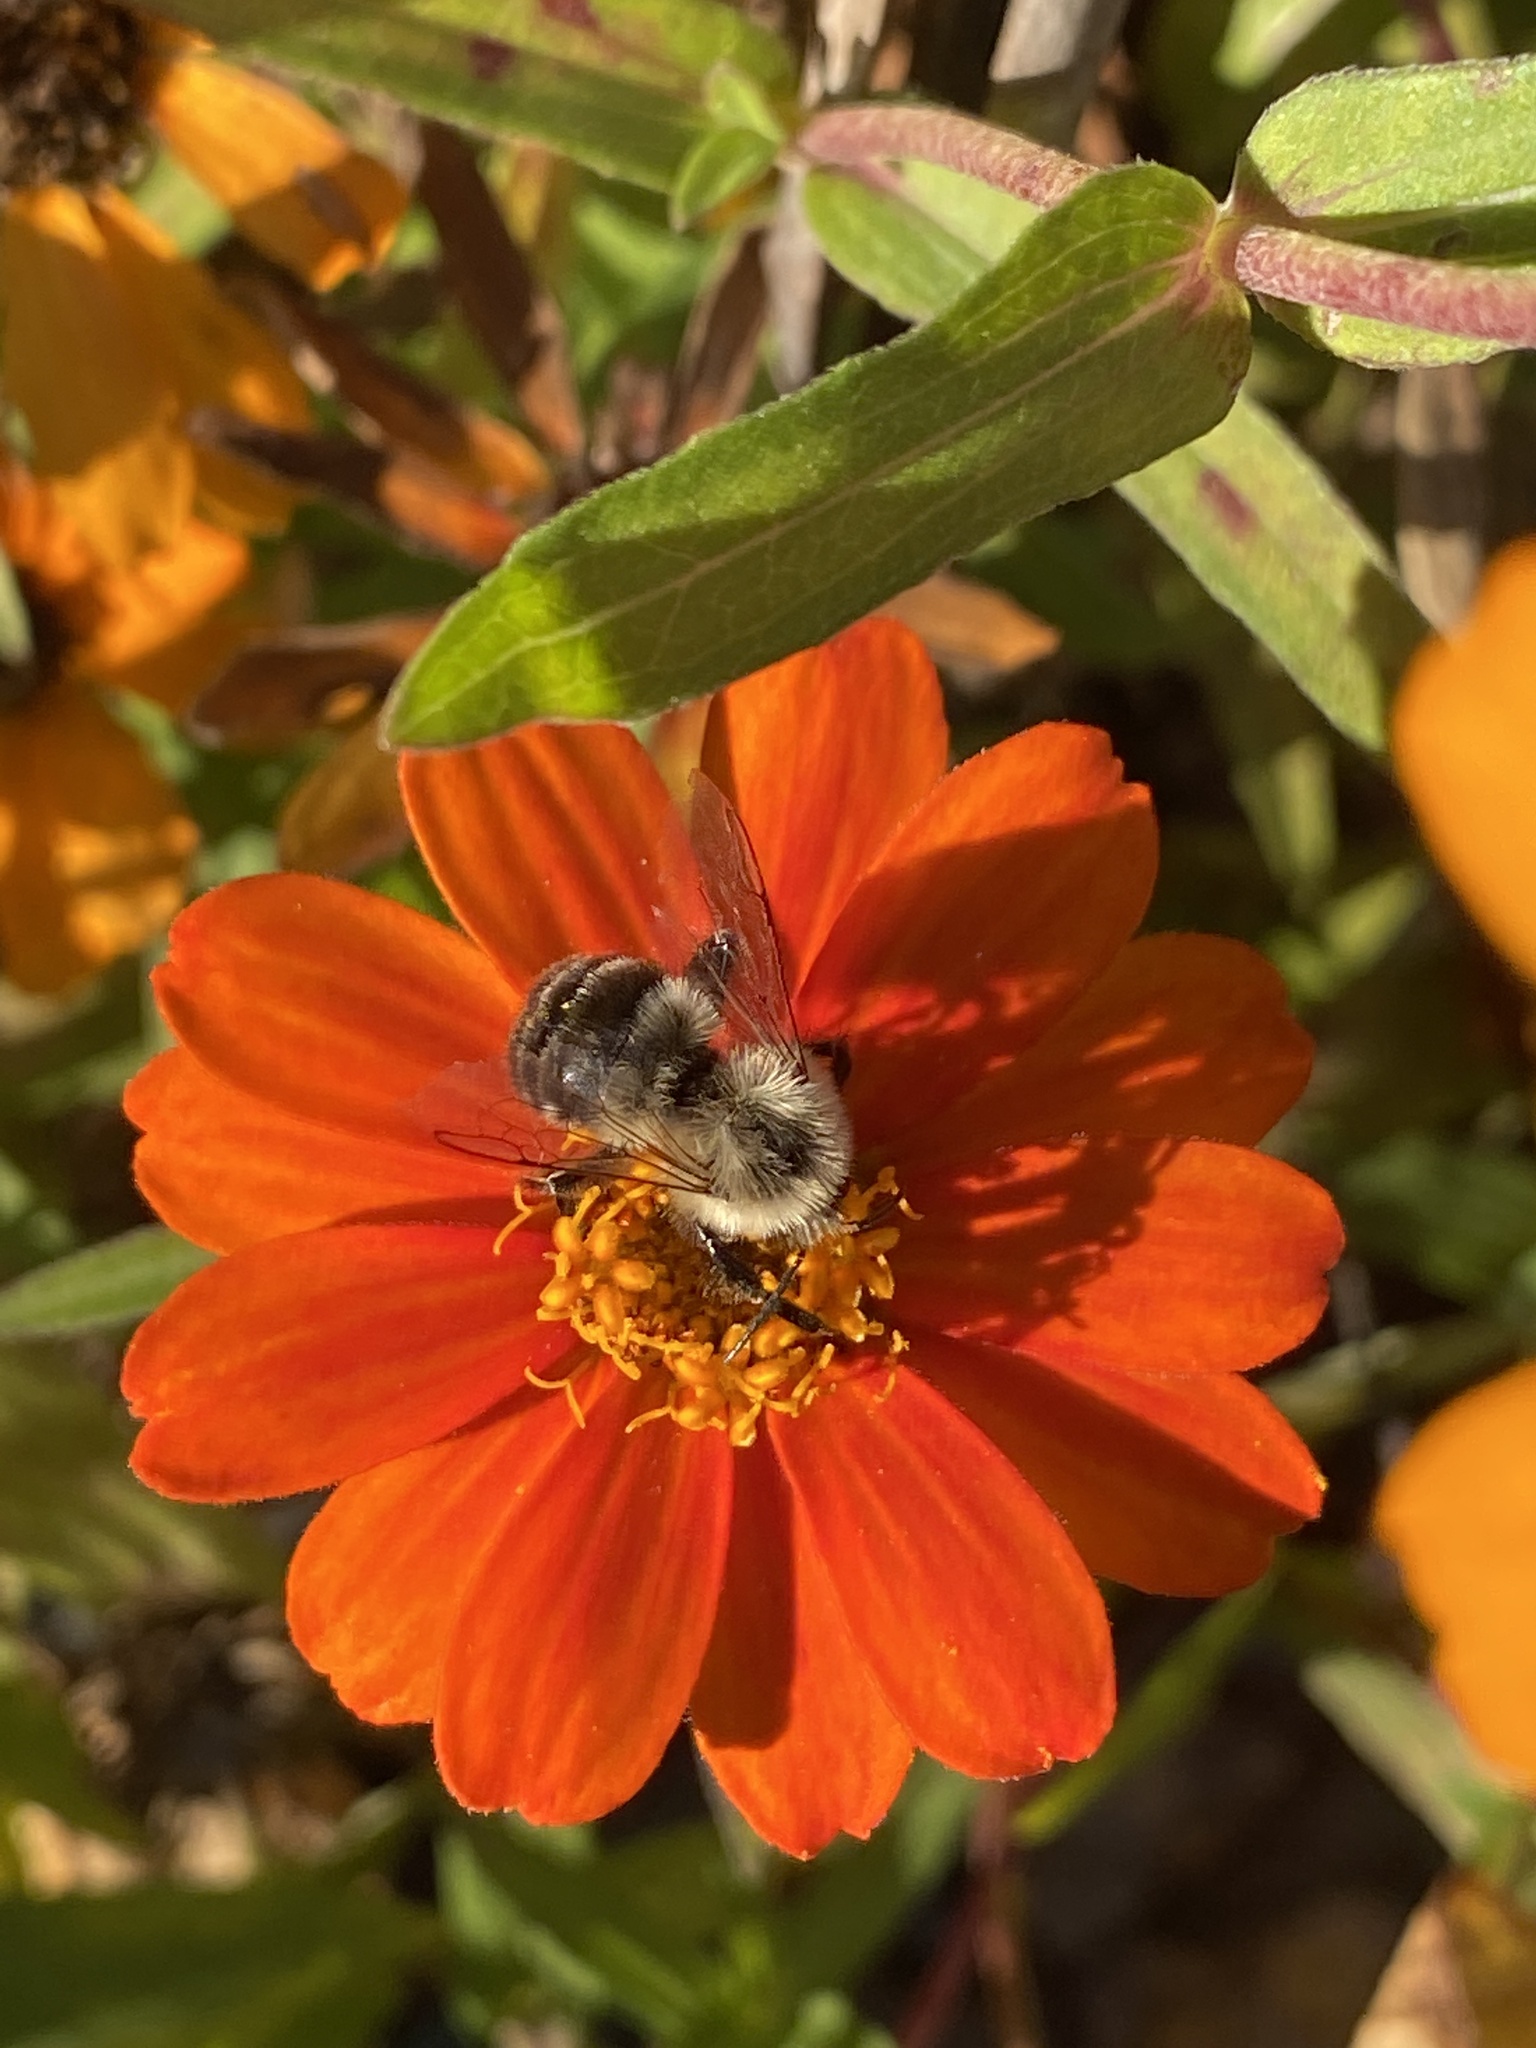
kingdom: Animalia
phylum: Arthropoda
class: Insecta
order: Hymenoptera
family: Apidae
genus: Bombus
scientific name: Bombus impatiens
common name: Common eastern bumble bee
